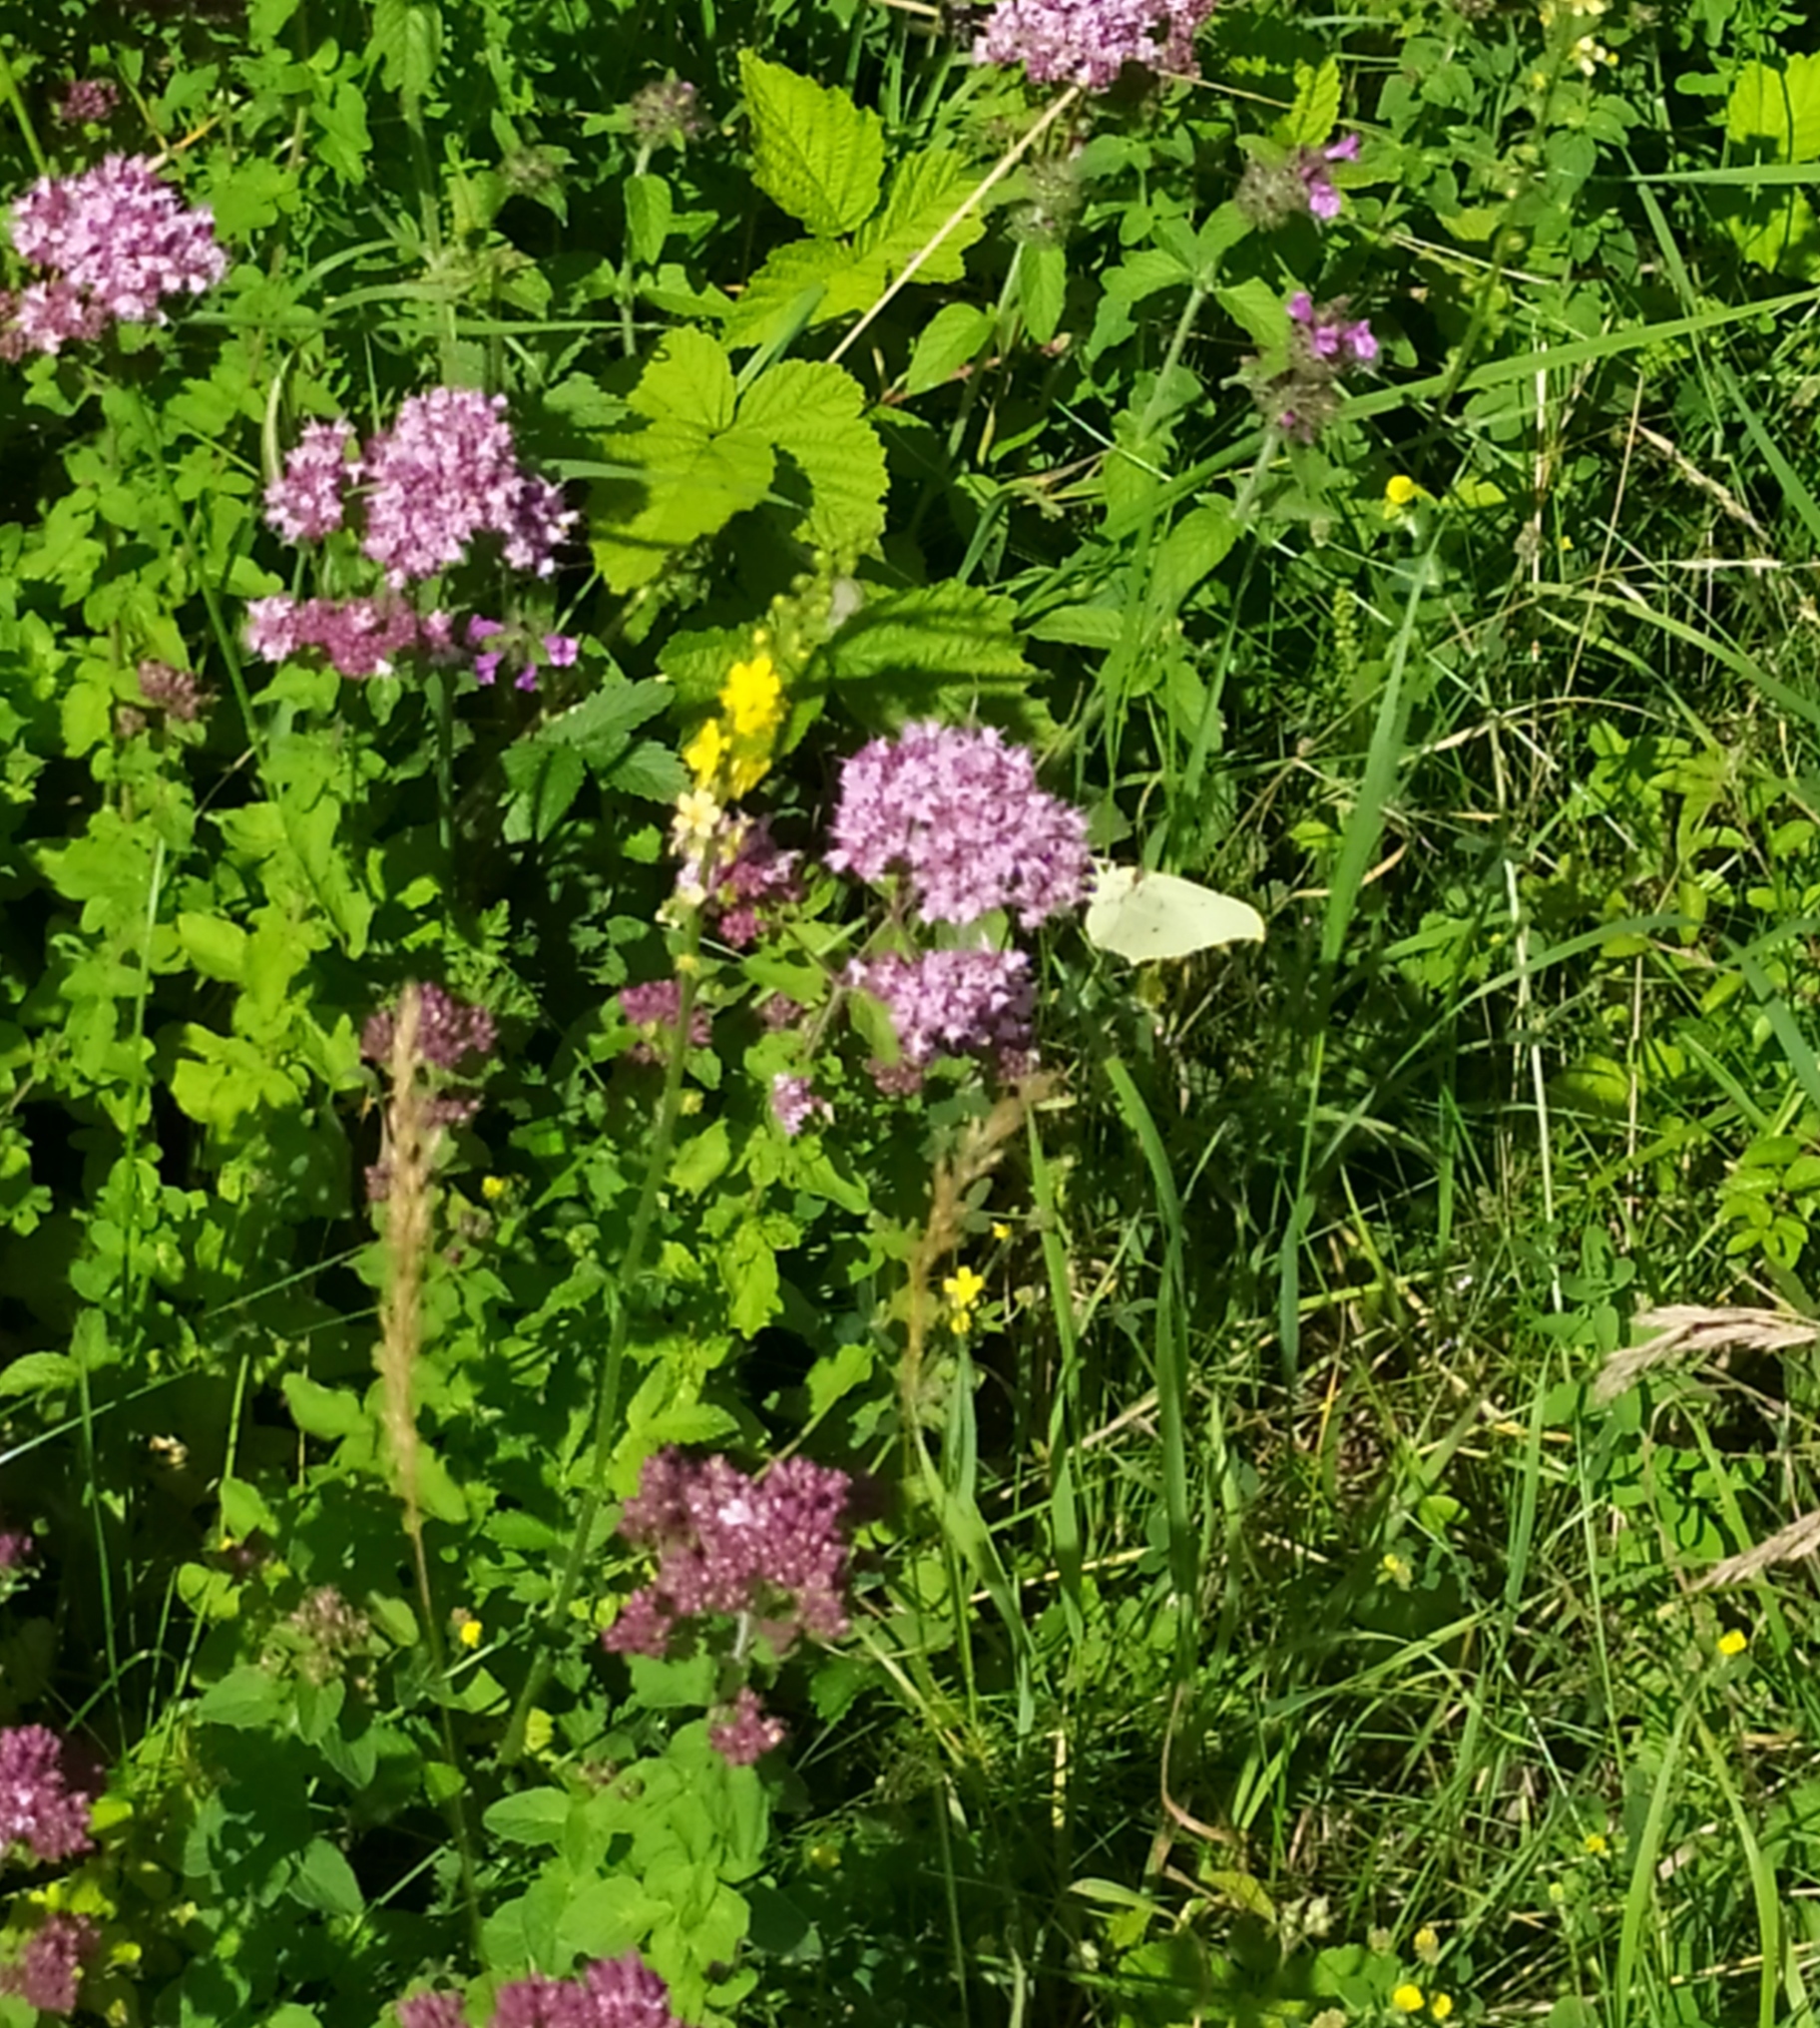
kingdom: Animalia
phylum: Arthropoda
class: Insecta
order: Lepidoptera
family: Pieridae
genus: Gonepteryx
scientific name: Gonepteryx rhamni
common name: Brimstone
